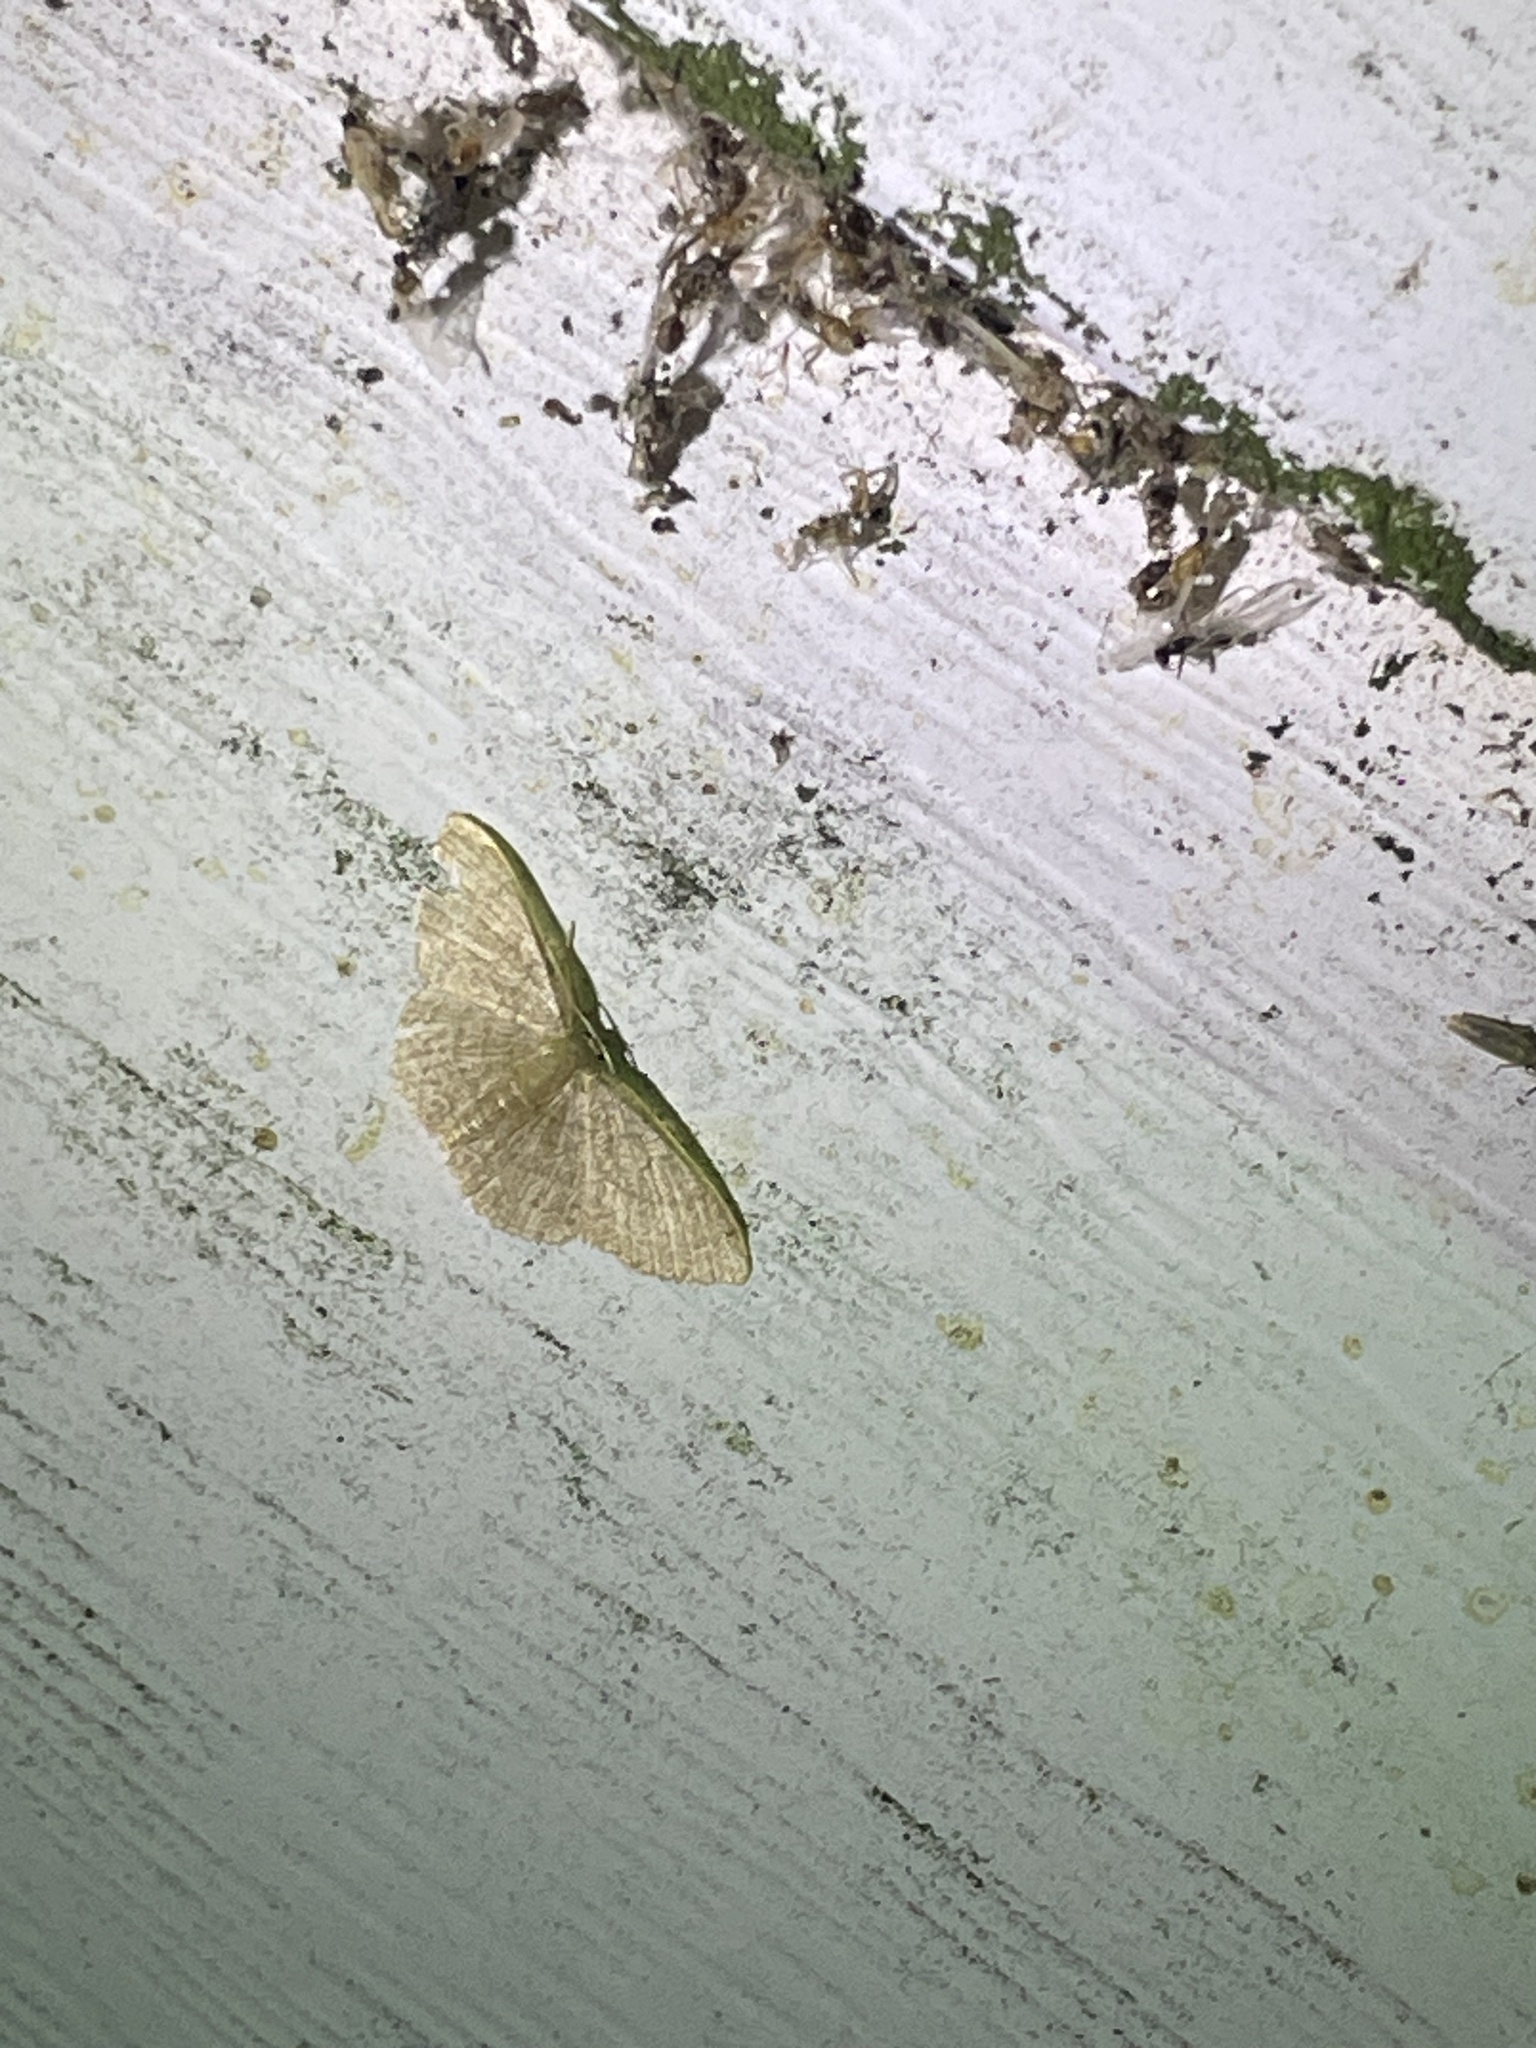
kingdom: Animalia
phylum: Arthropoda
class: Insecta
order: Lepidoptera
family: Geometridae
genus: Pleuroprucha
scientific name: Pleuroprucha insulsaria
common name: Common tan wave
